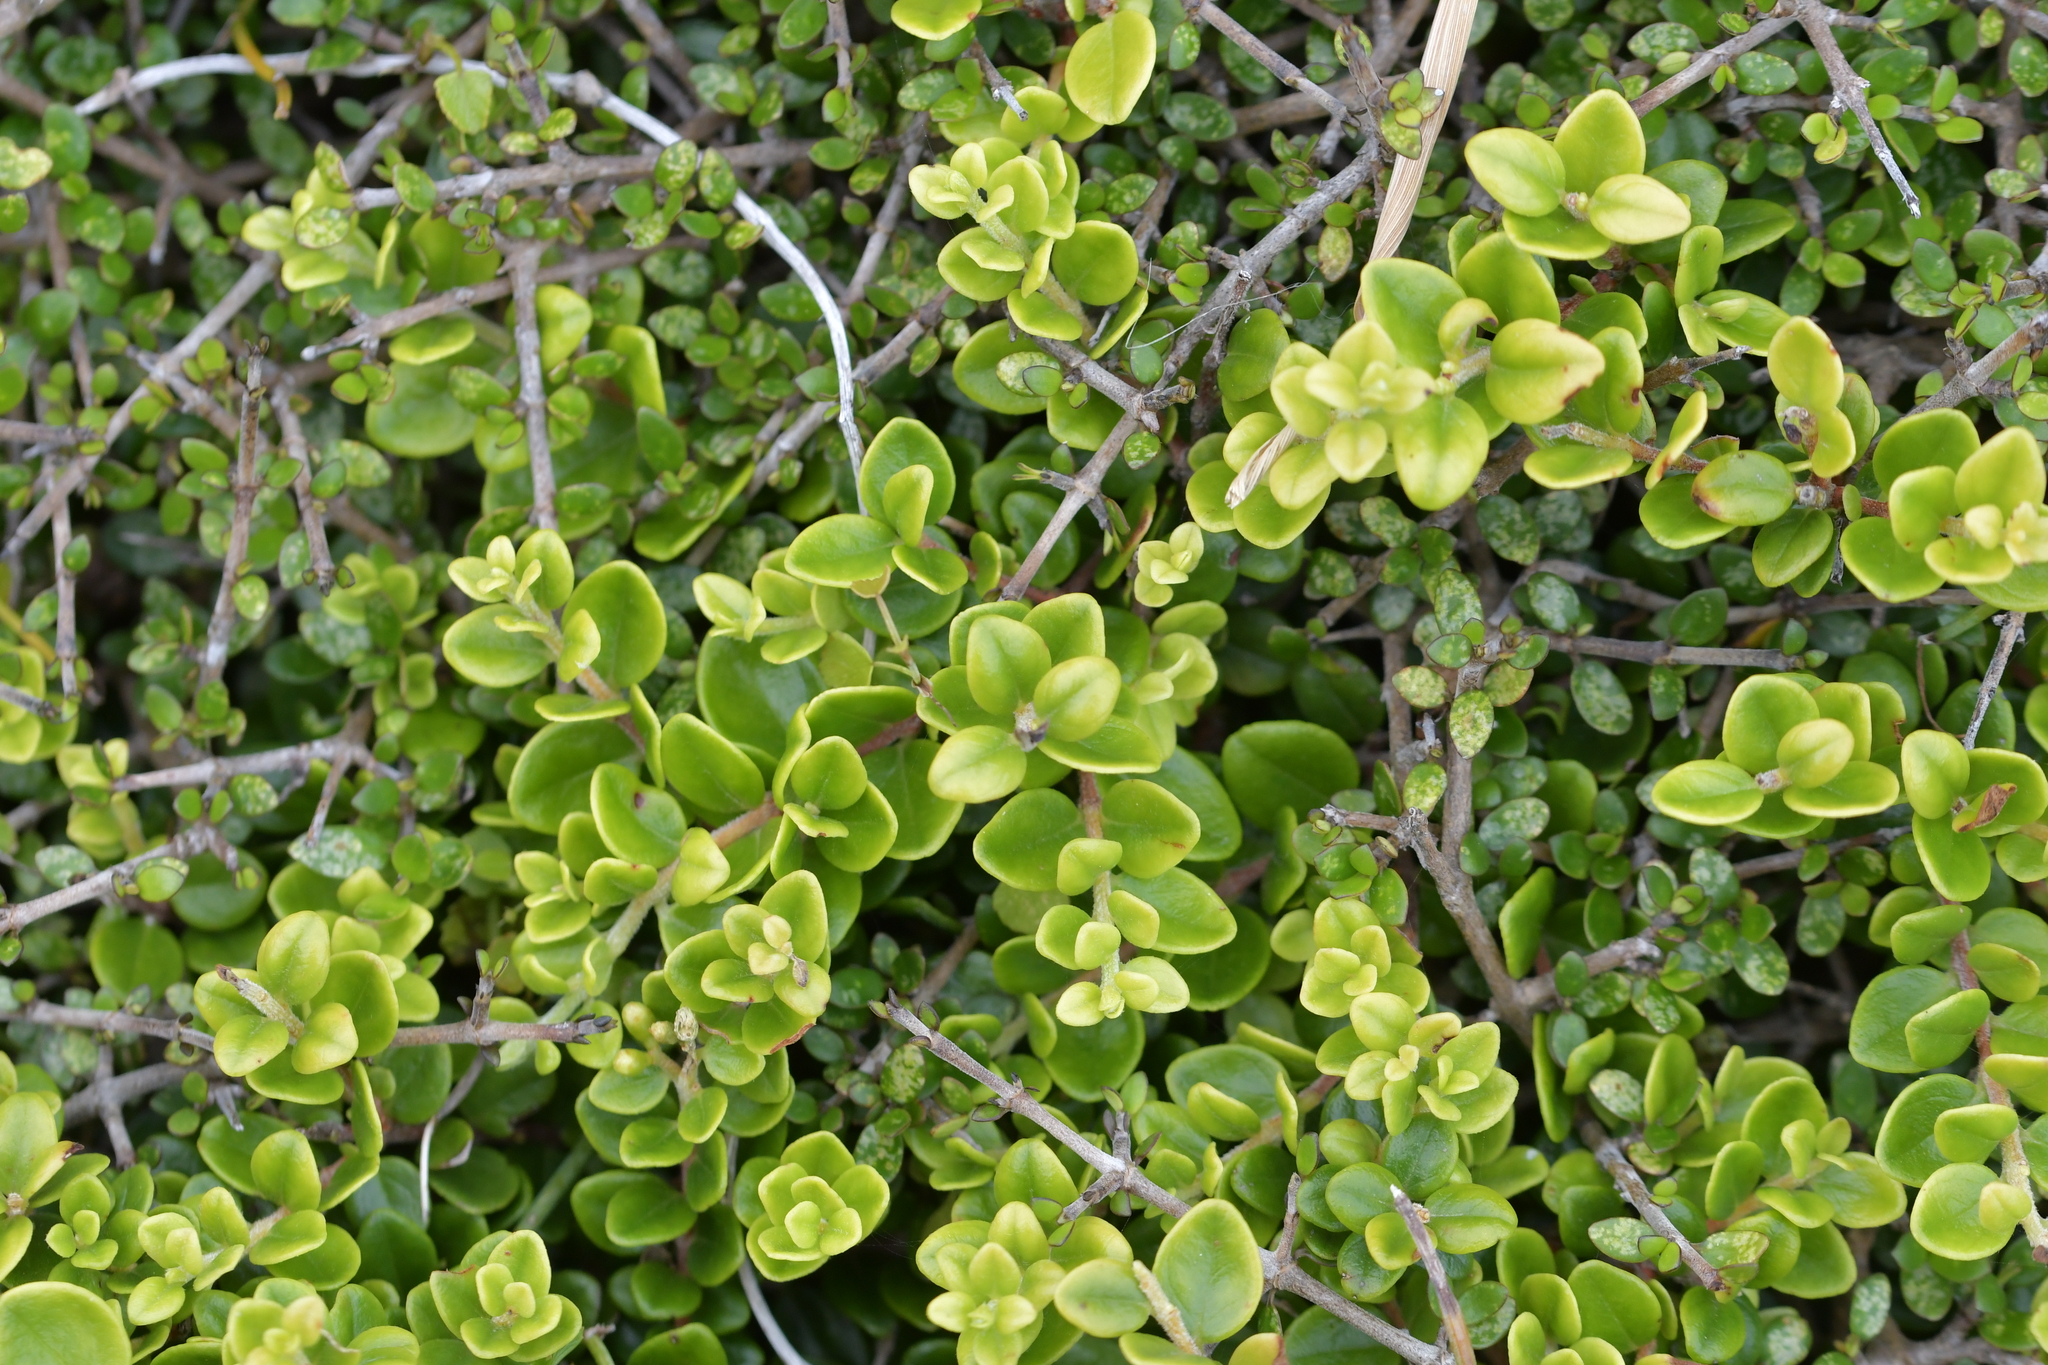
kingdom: Plantae
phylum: Tracheophyta
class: Magnoliopsida
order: Myrtales
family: Myrtaceae
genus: Metrosideros
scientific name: Metrosideros perforata
